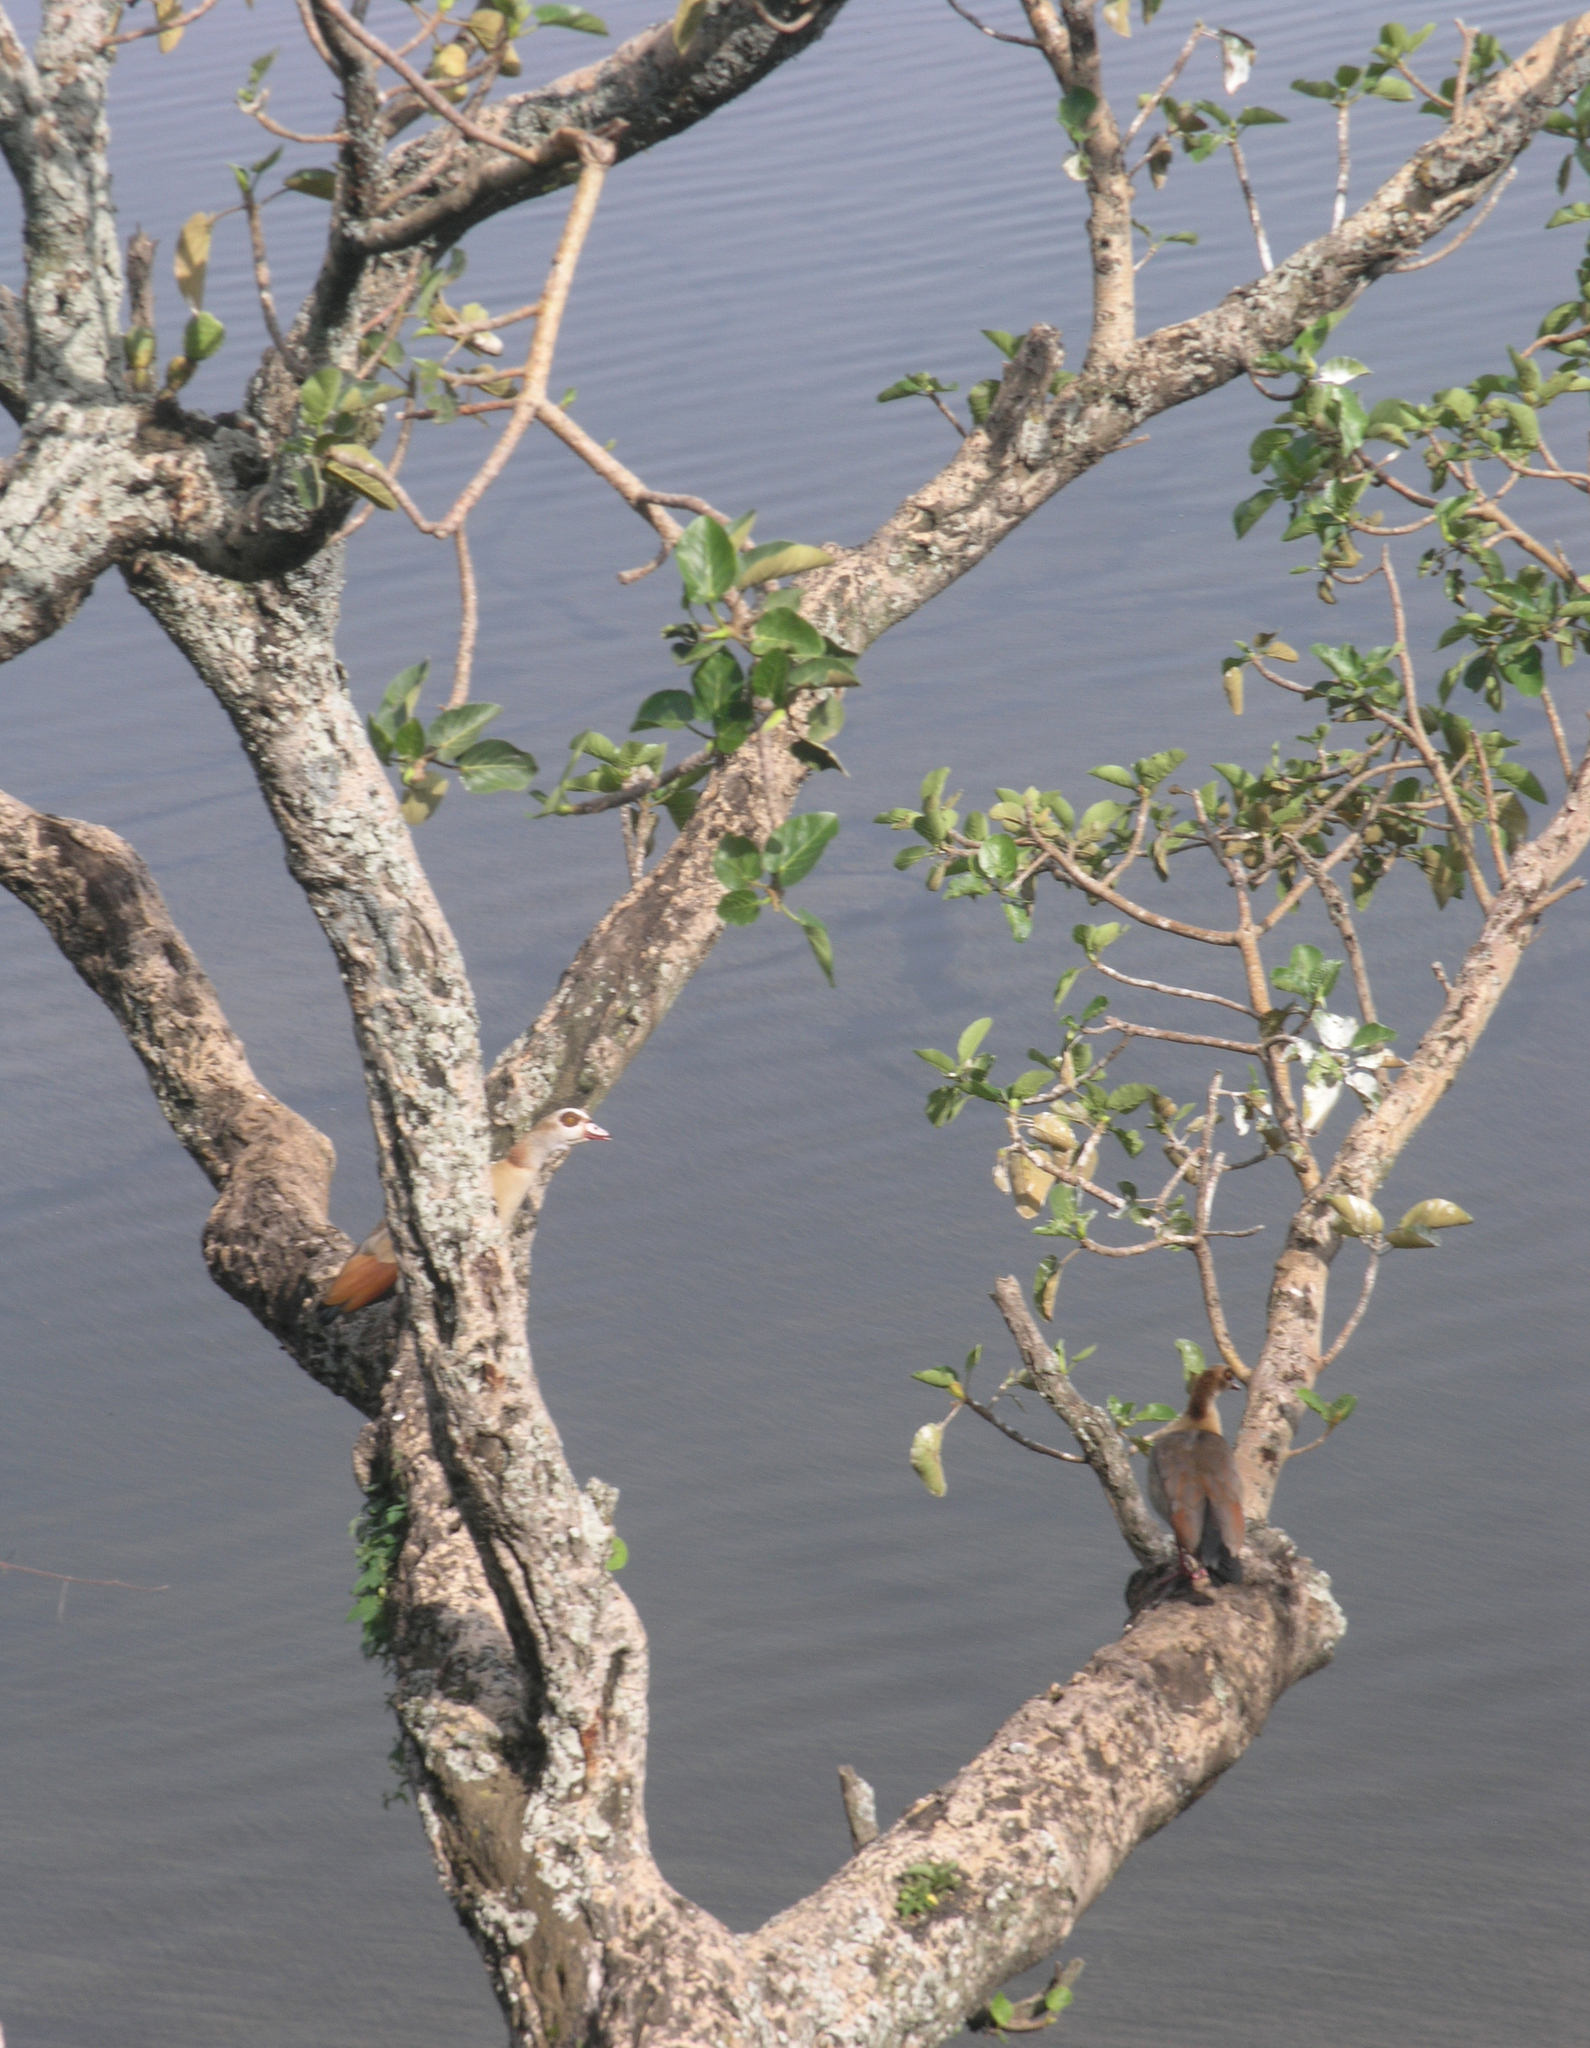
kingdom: Animalia
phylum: Chordata
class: Aves
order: Anseriformes
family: Anatidae
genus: Alopochen
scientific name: Alopochen aegyptiaca
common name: Egyptian goose
